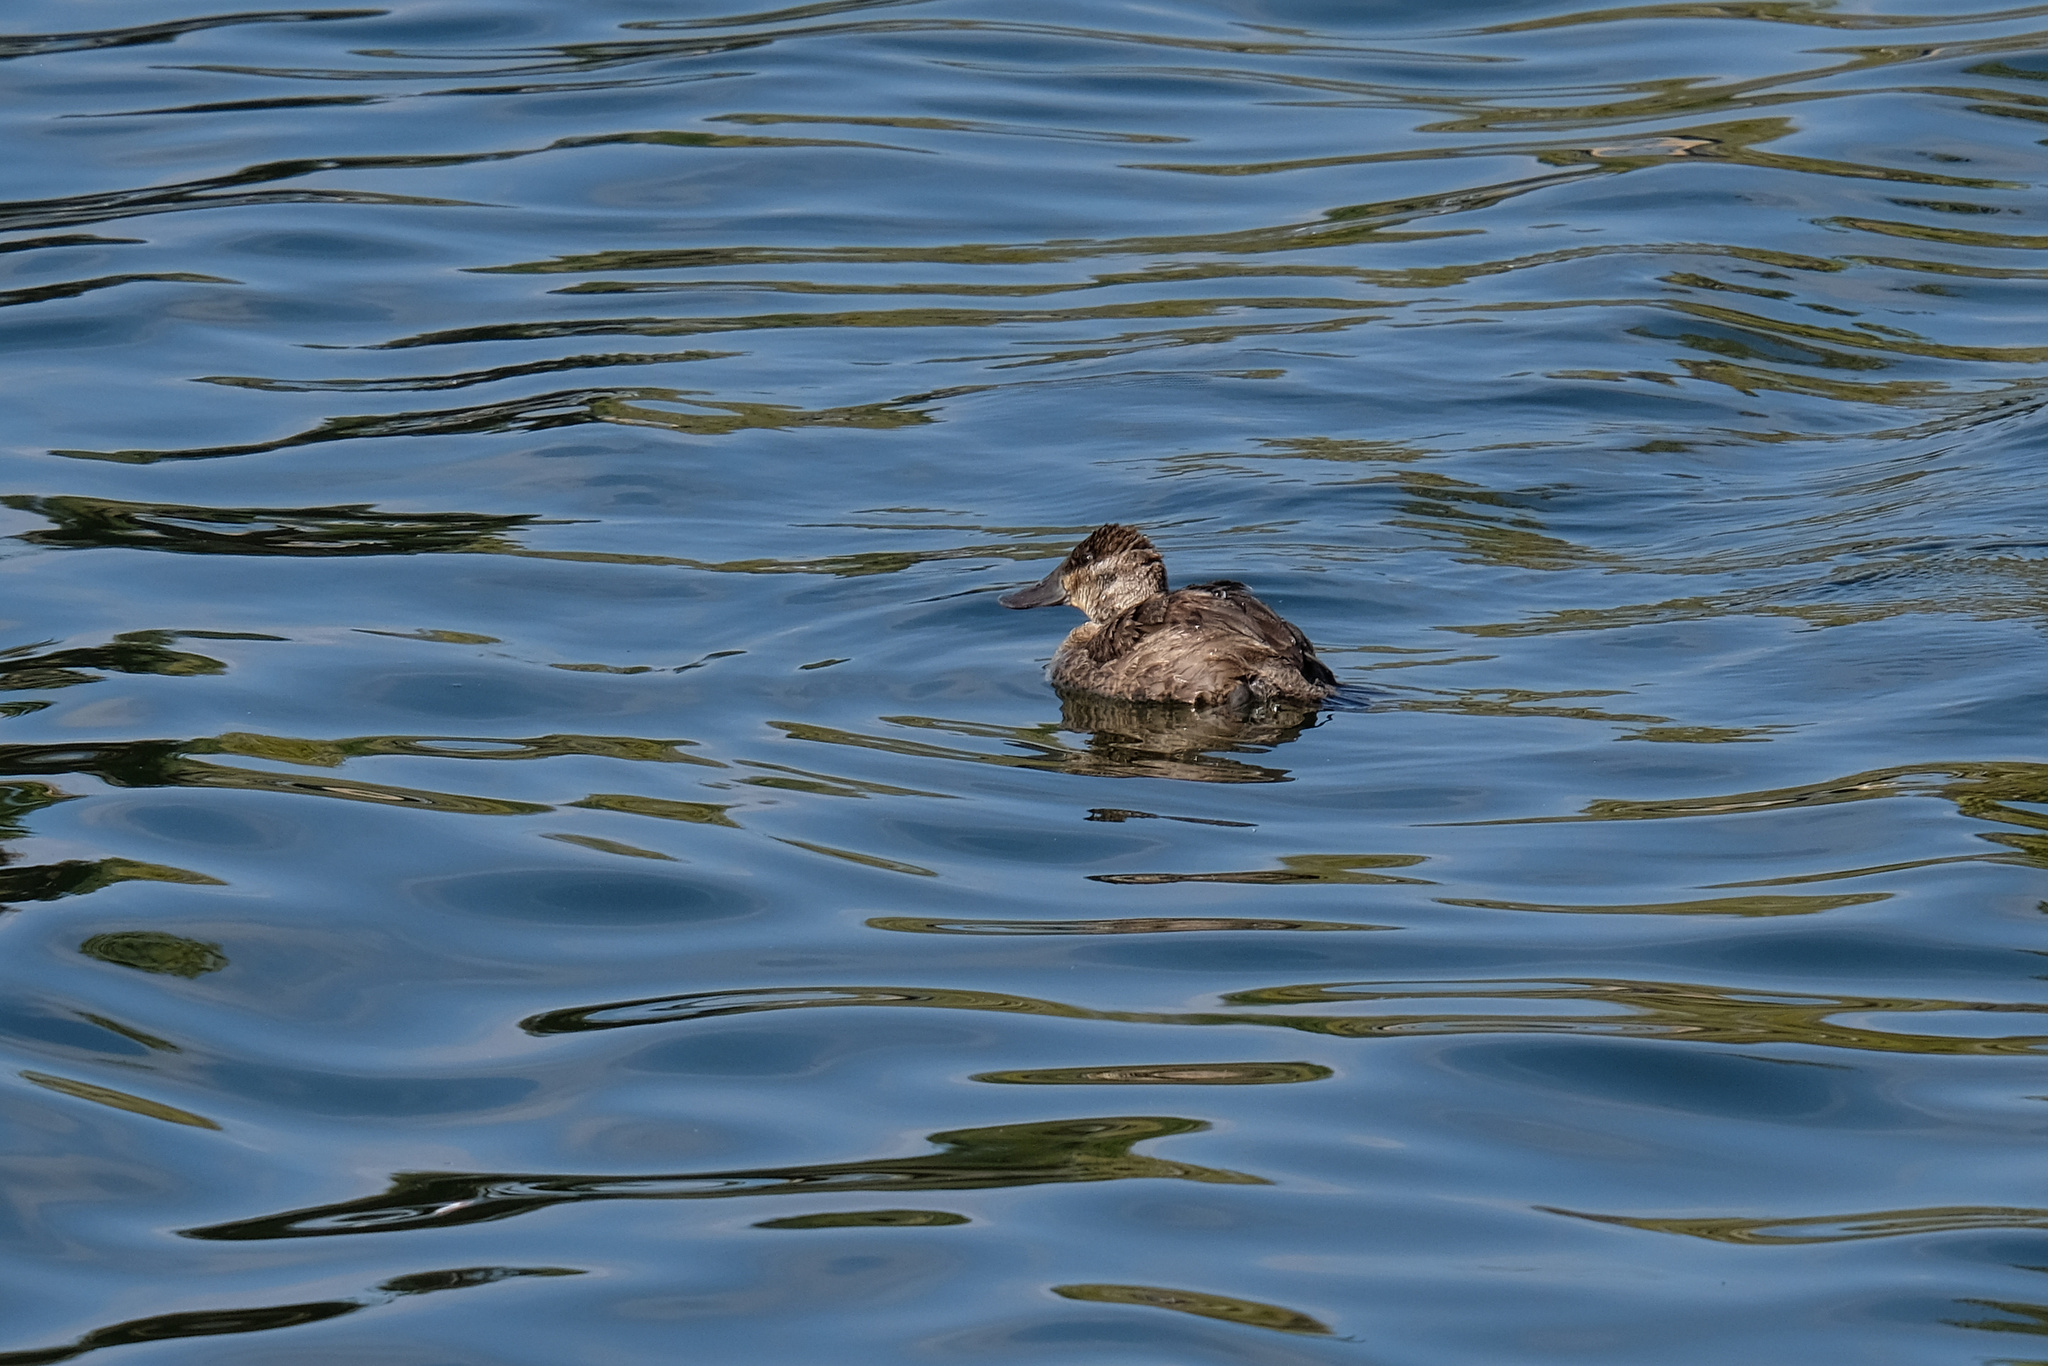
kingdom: Animalia
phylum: Chordata
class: Aves
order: Anseriformes
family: Anatidae
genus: Oxyura
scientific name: Oxyura jamaicensis
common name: Ruddy duck
